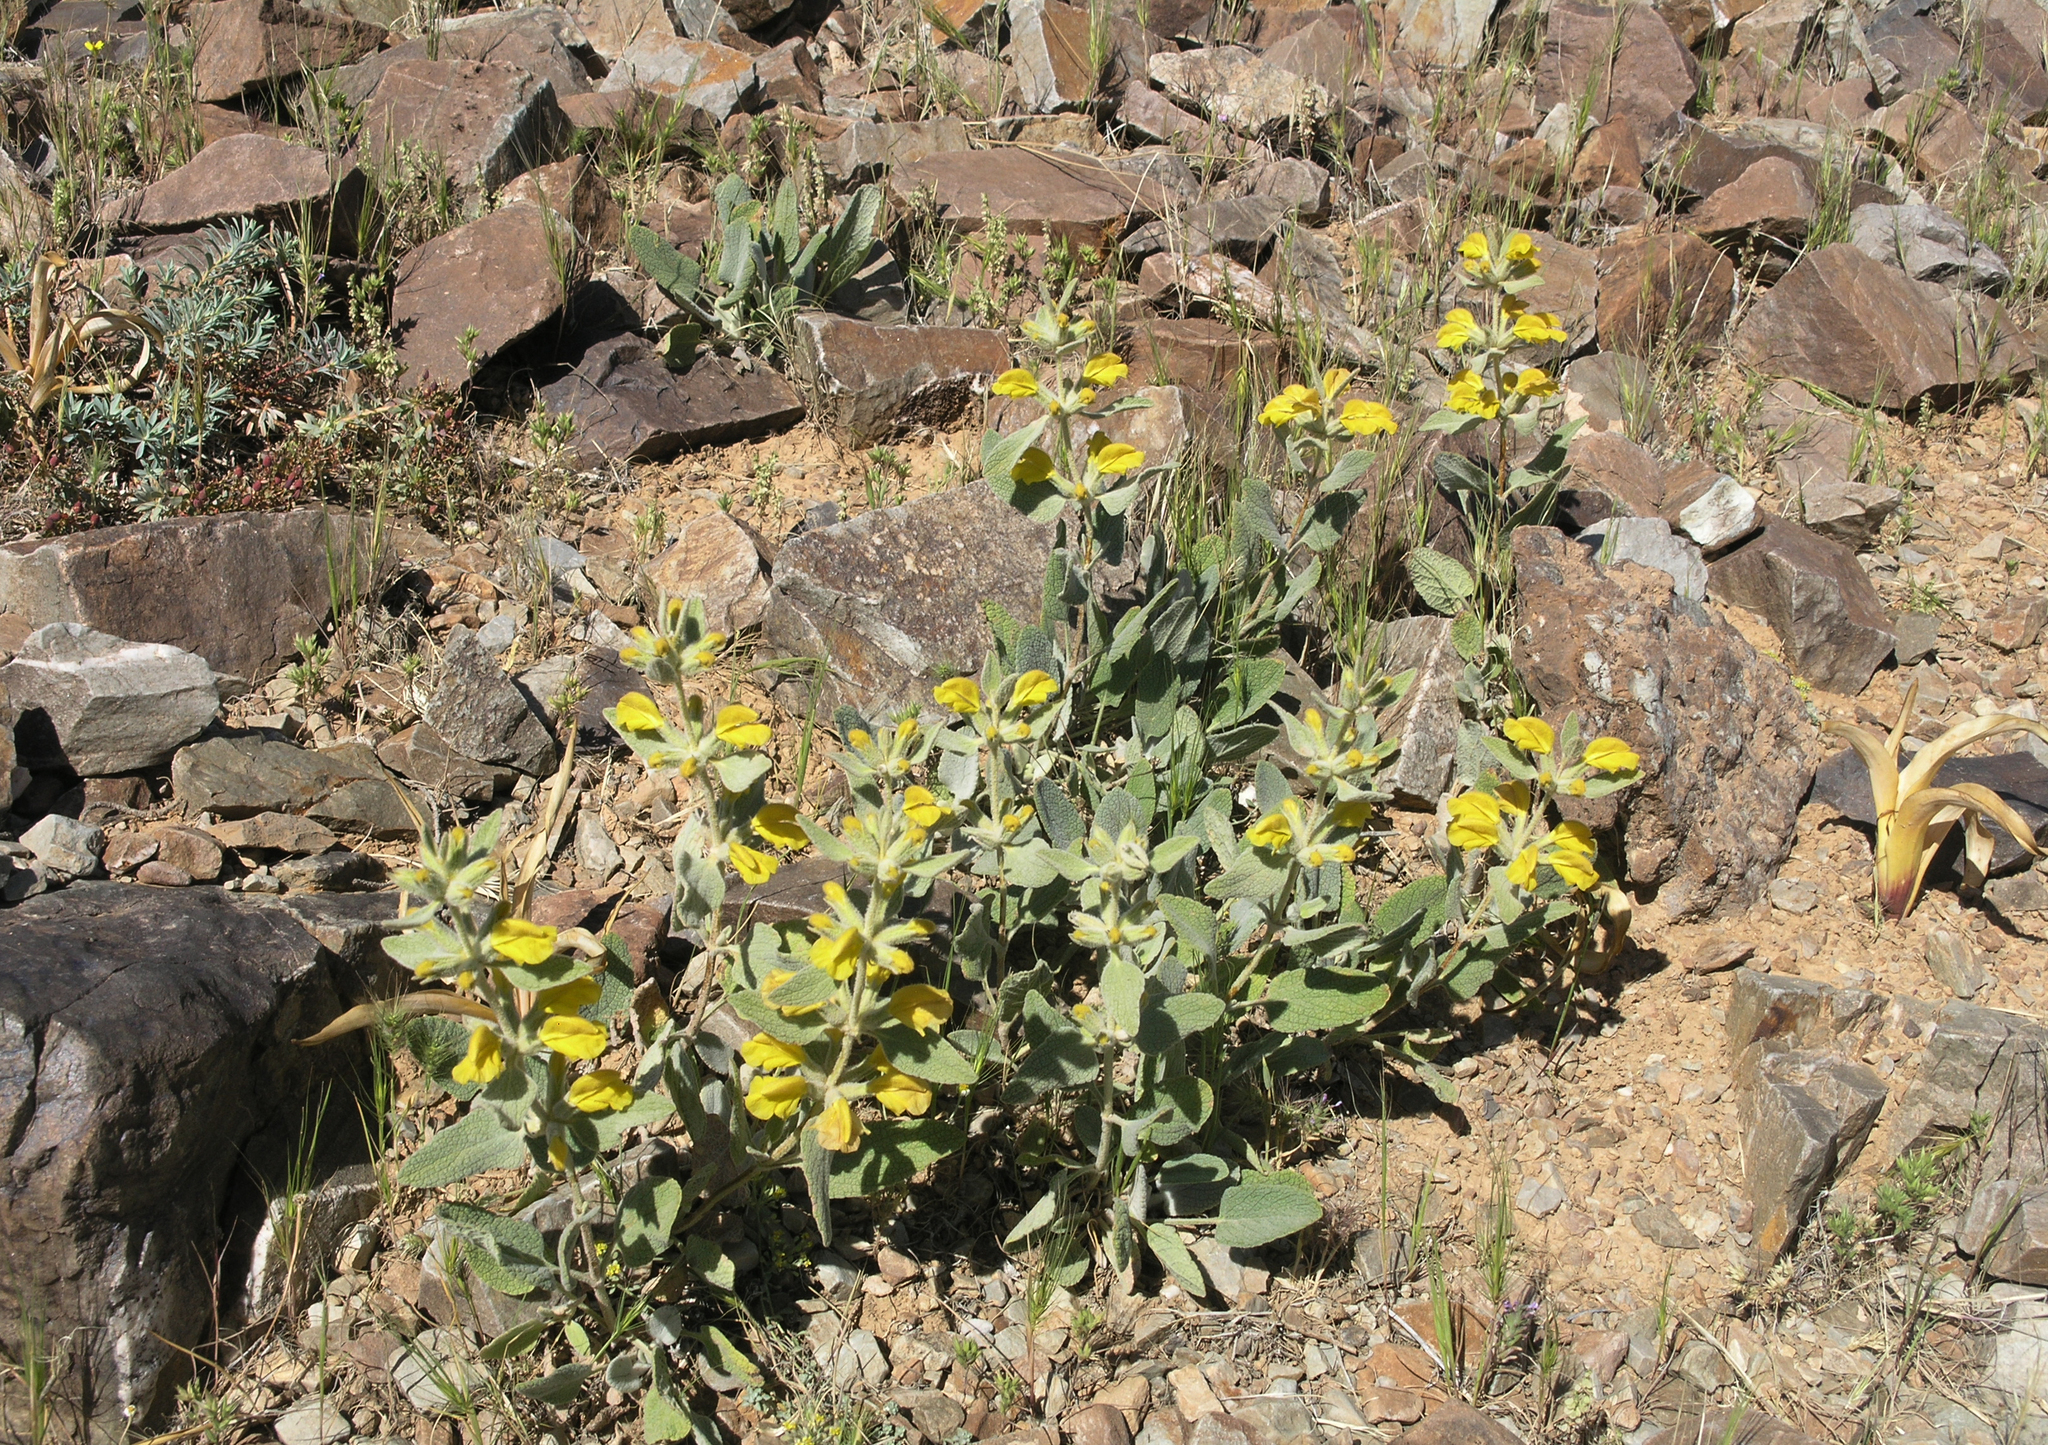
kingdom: Plantae
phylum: Tracheophyta
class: Magnoliopsida
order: Lamiales
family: Lamiaceae
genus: Phlomis
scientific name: Phlomis olivieri
